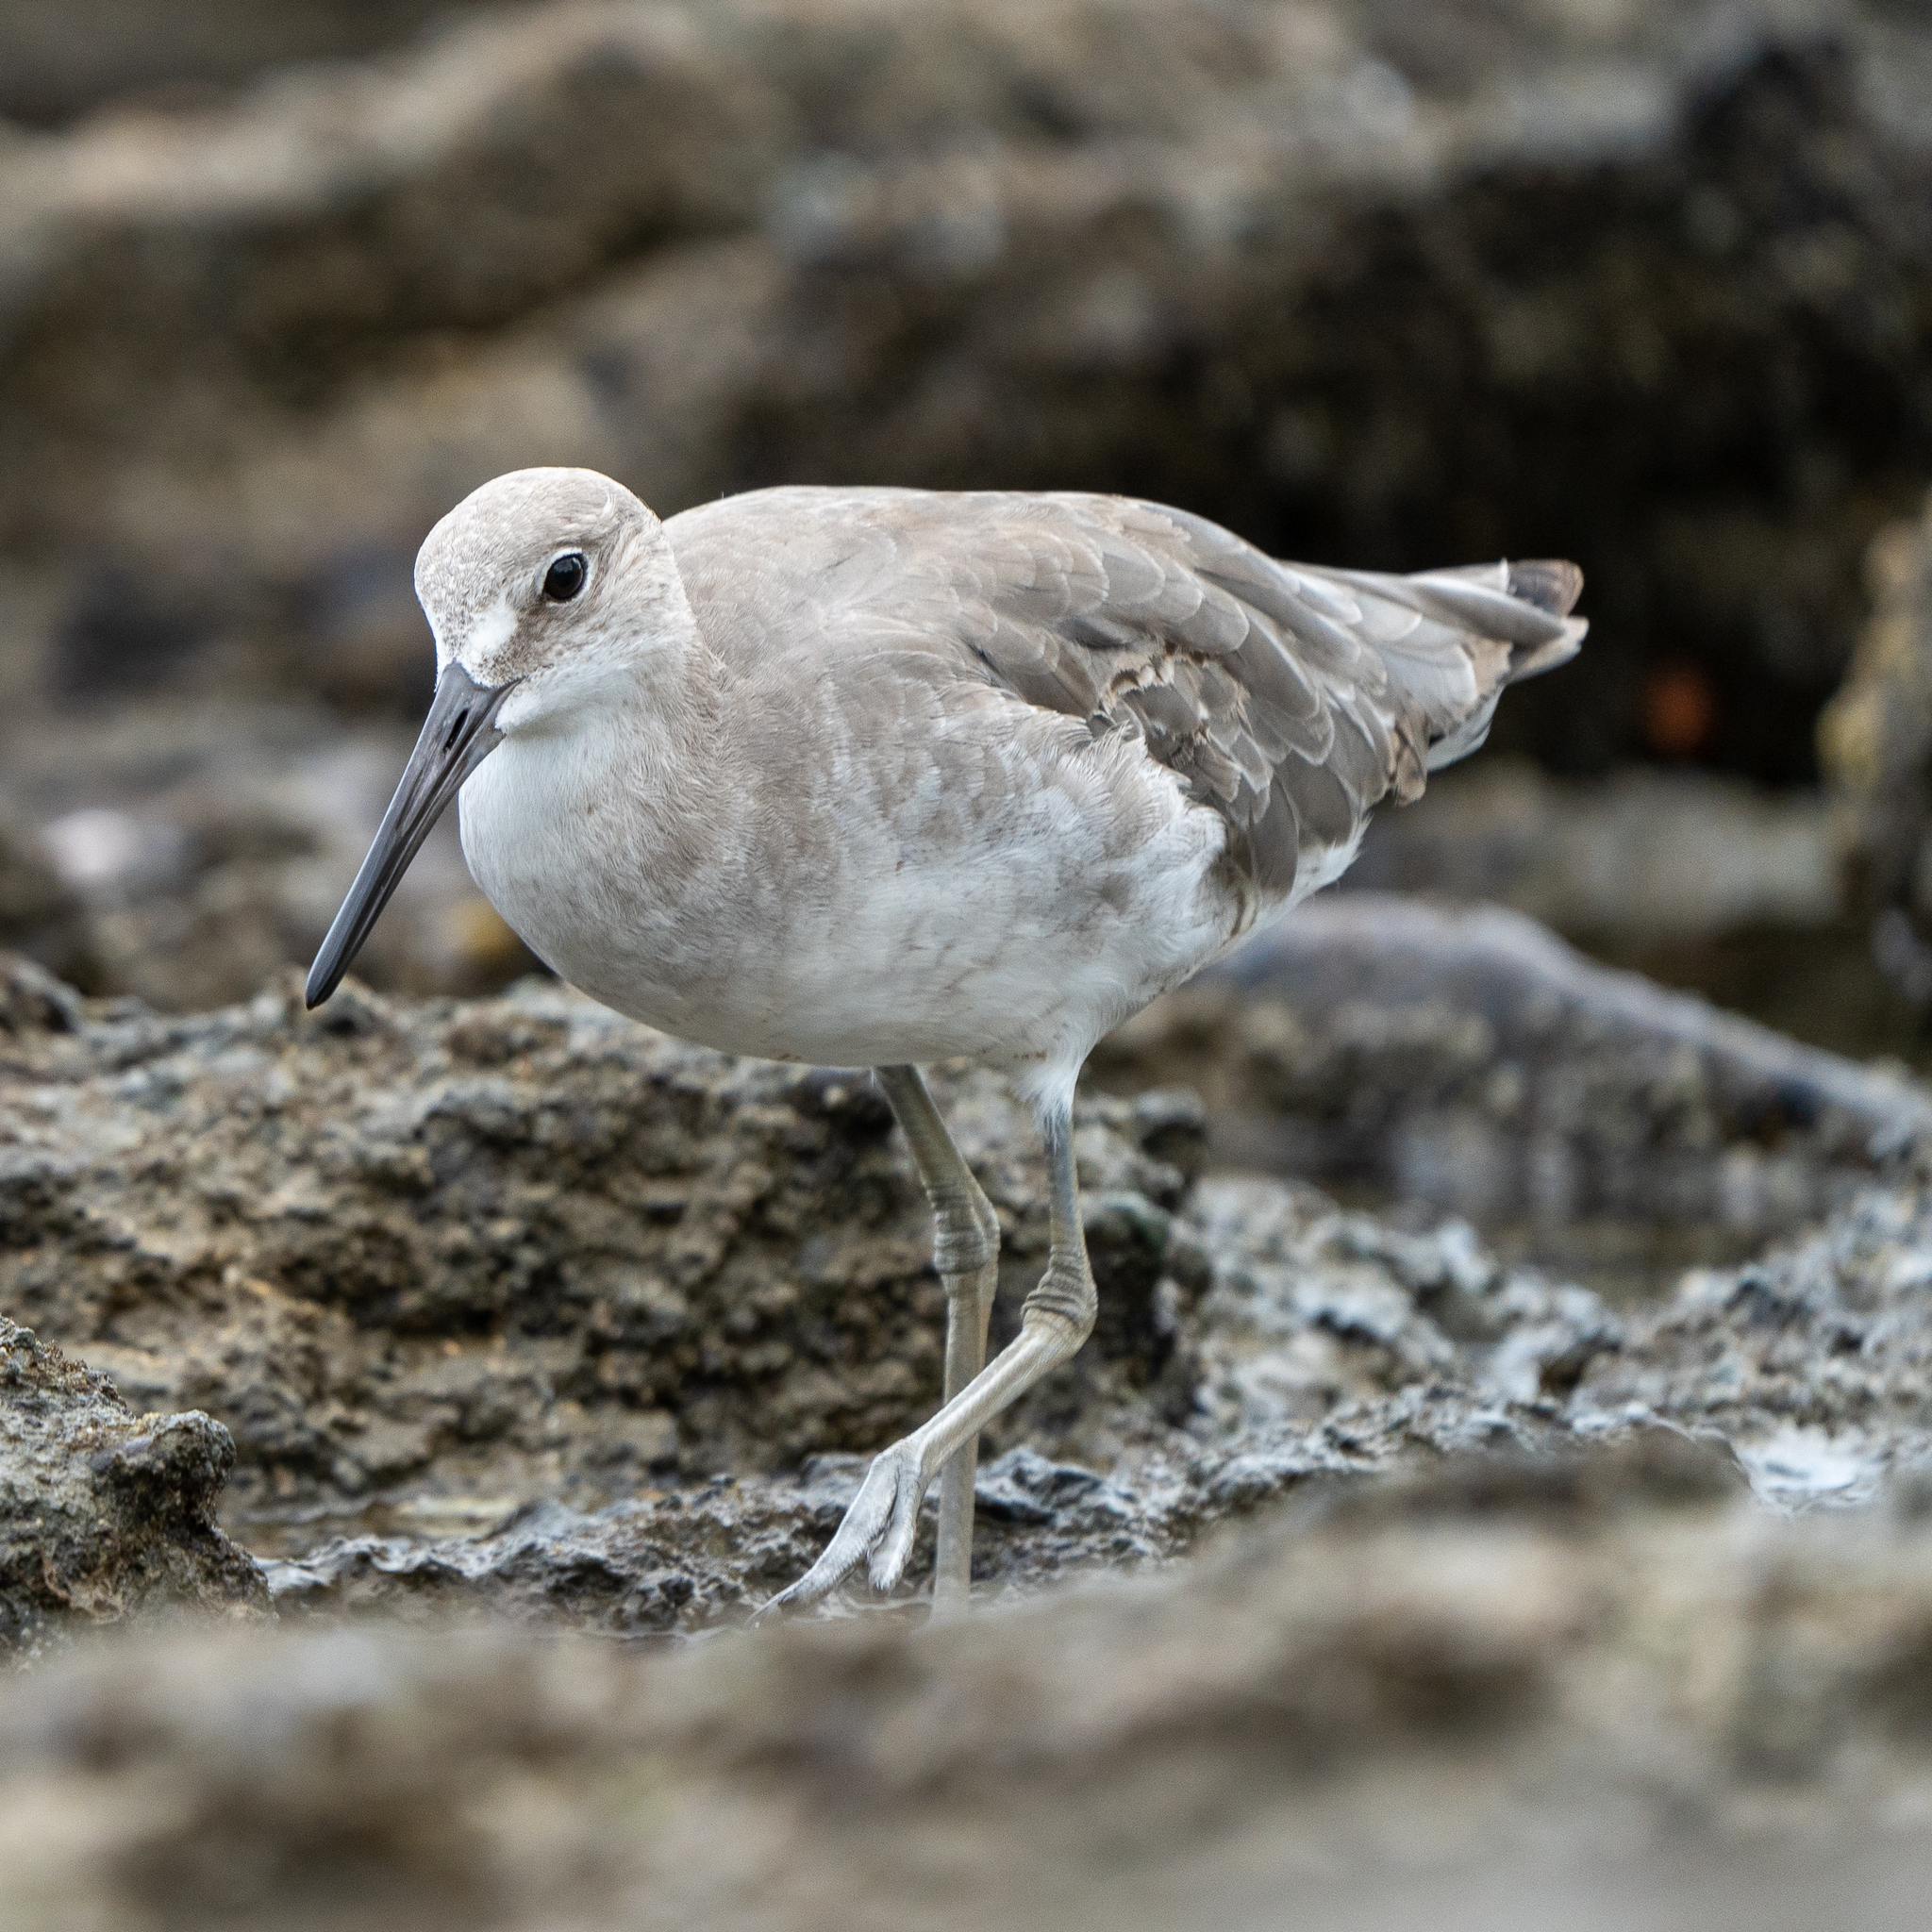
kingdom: Animalia
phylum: Chordata
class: Aves
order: Charadriiformes
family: Scolopacidae
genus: Tringa
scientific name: Tringa semipalmata
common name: Willet
